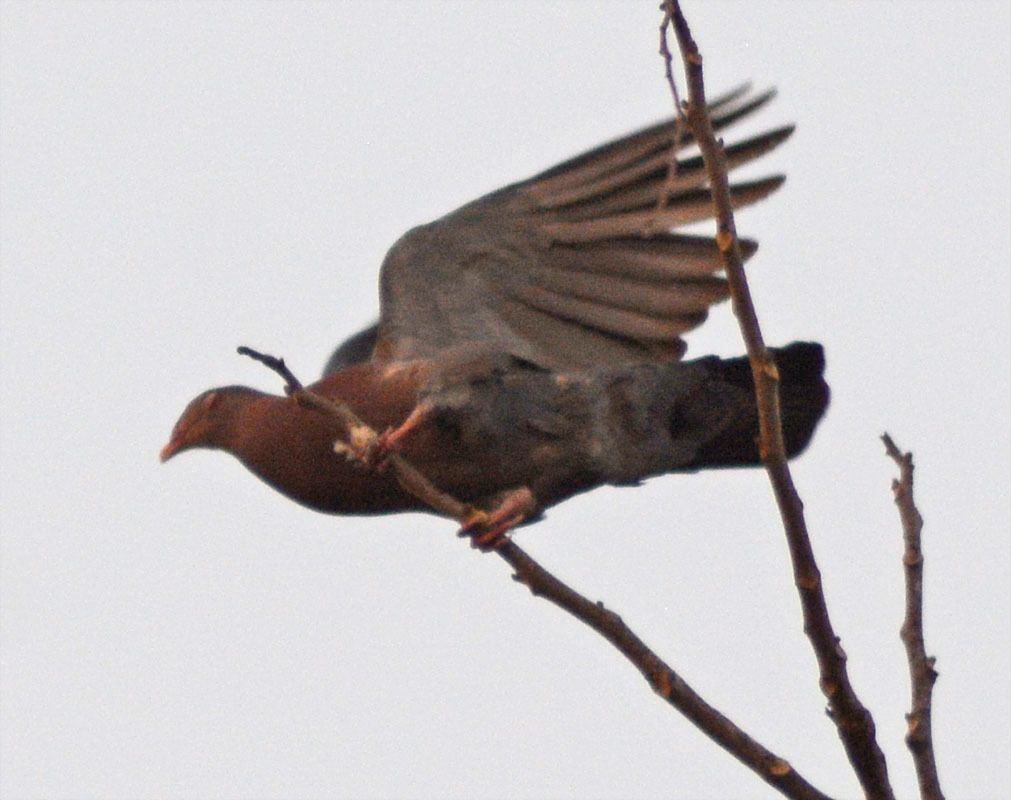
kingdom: Animalia
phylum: Chordata
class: Aves
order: Columbiformes
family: Columbidae
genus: Patagioenas
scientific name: Patagioenas flavirostris
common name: Red-billed pigeon
